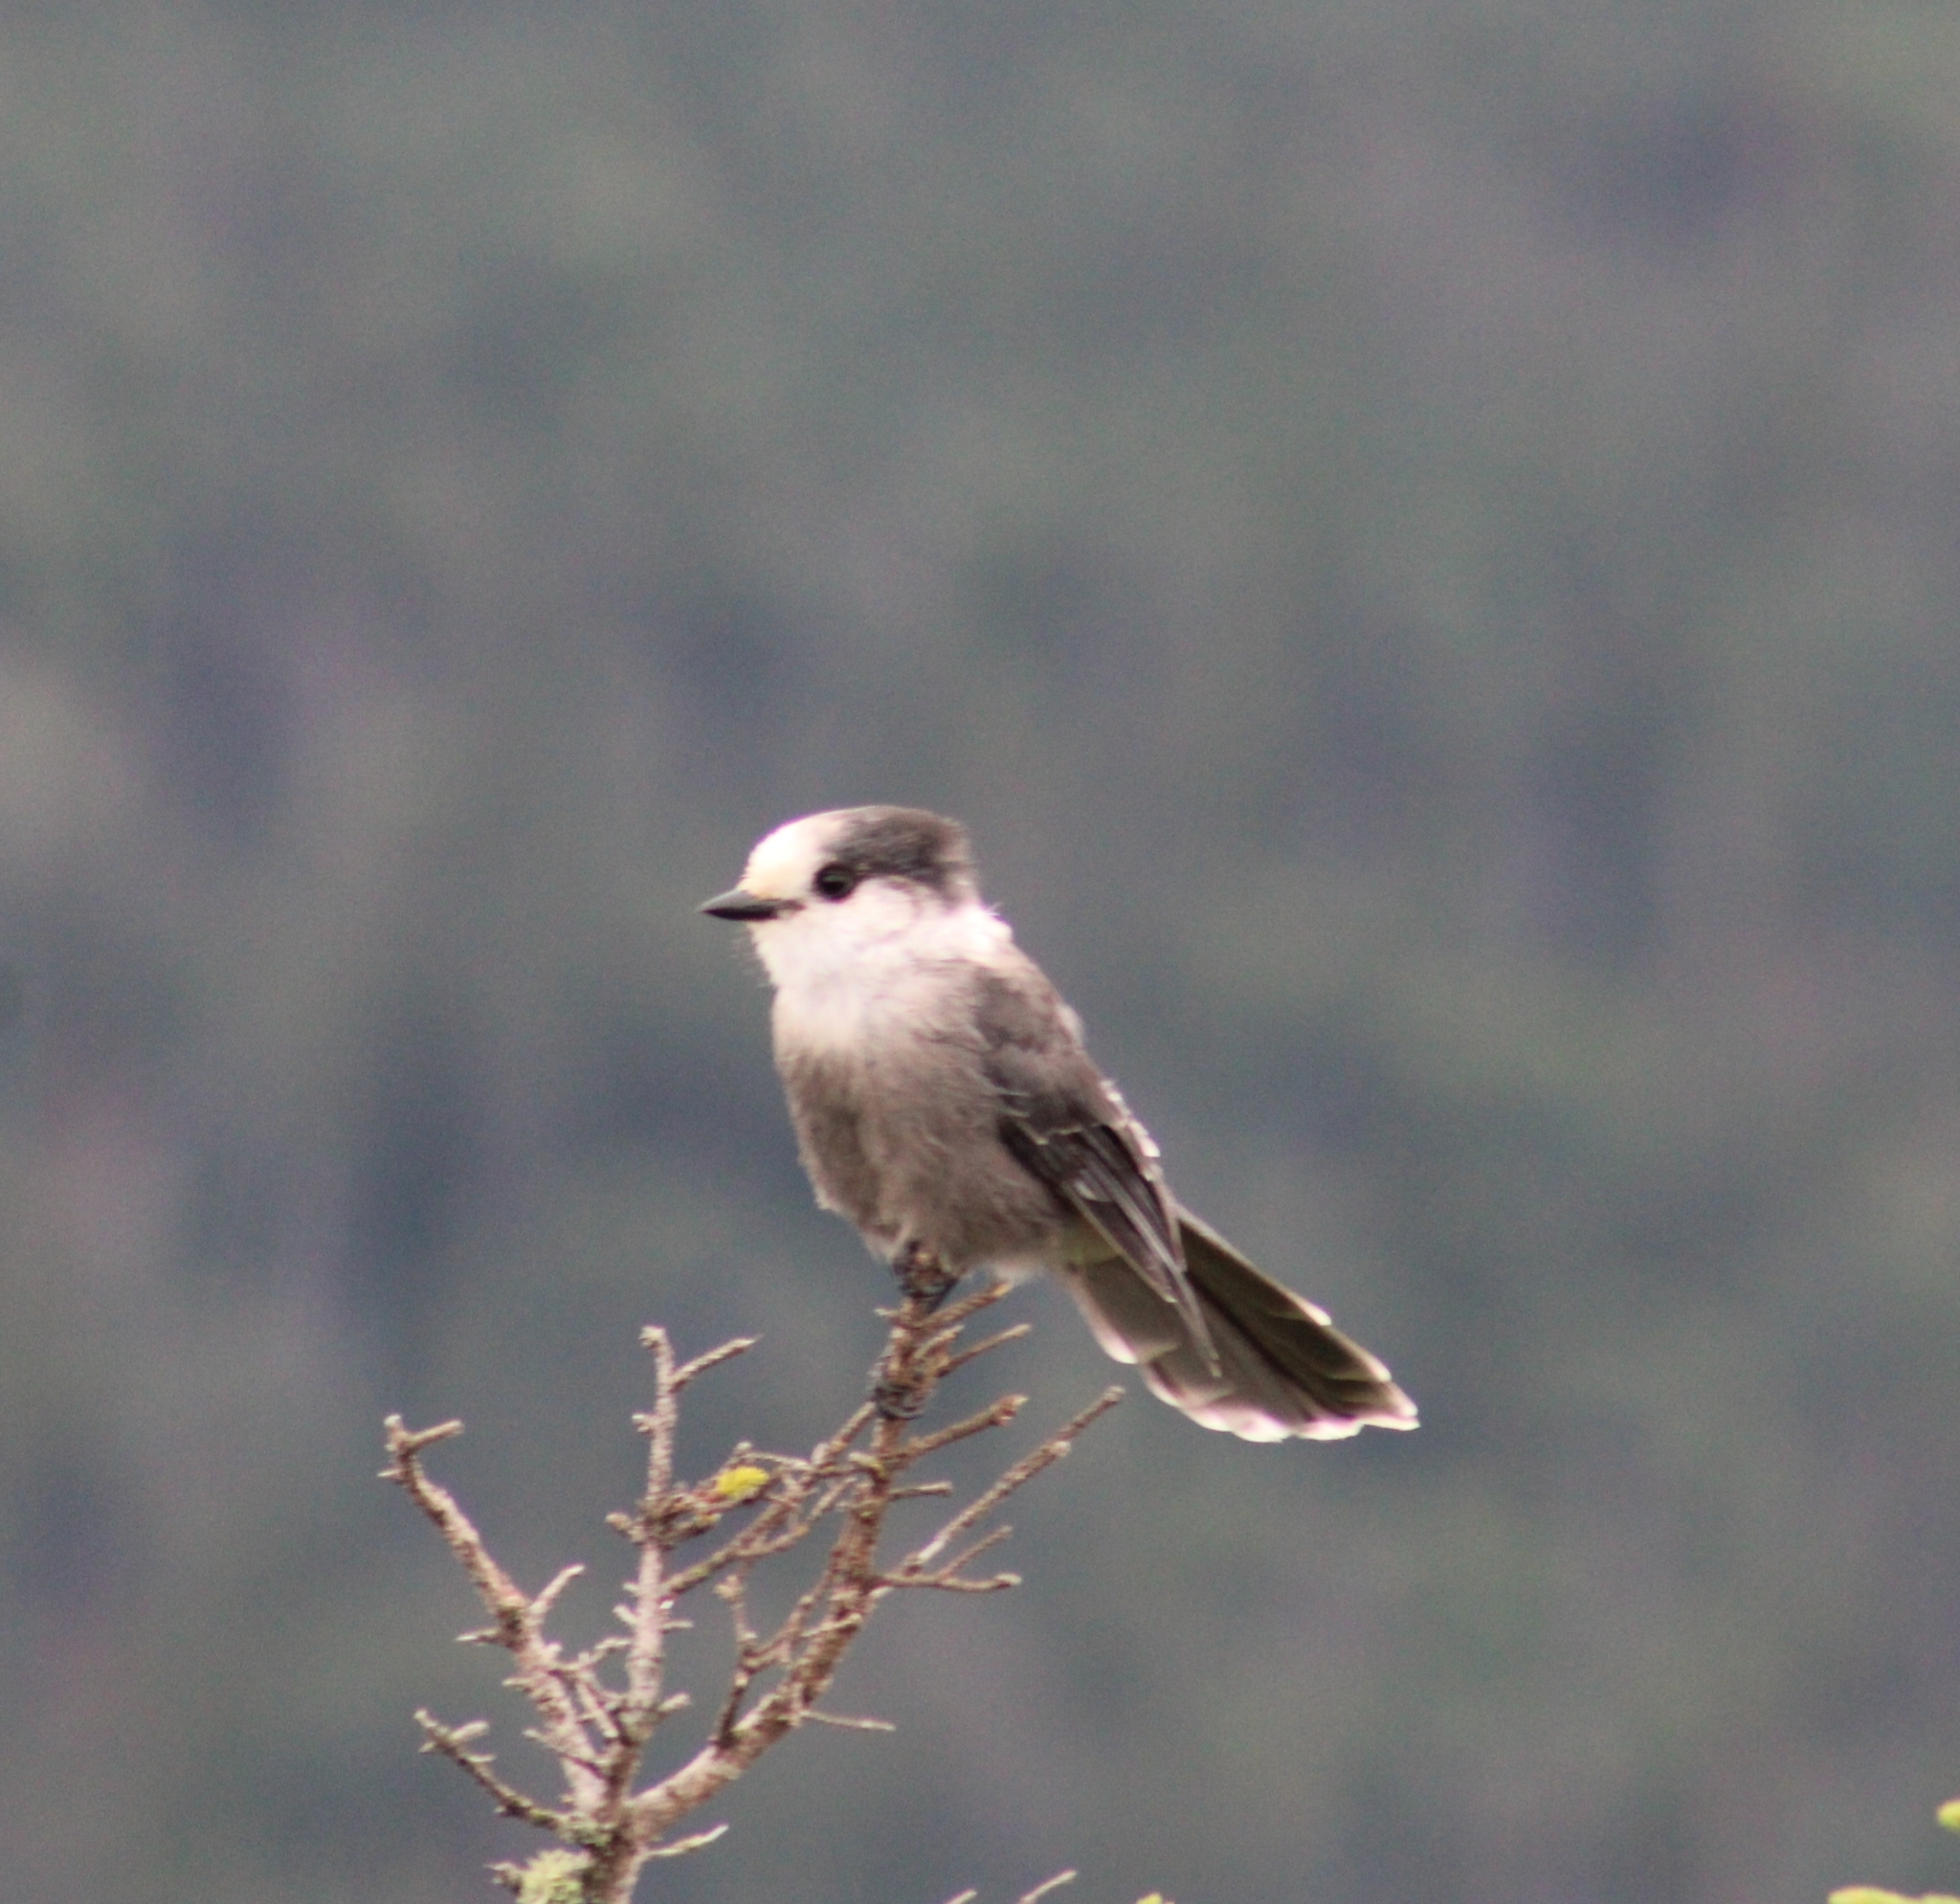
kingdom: Animalia
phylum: Chordata
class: Aves
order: Passeriformes
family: Corvidae
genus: Perisoreus
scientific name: Perisoreus canadensis
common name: Gray jay
